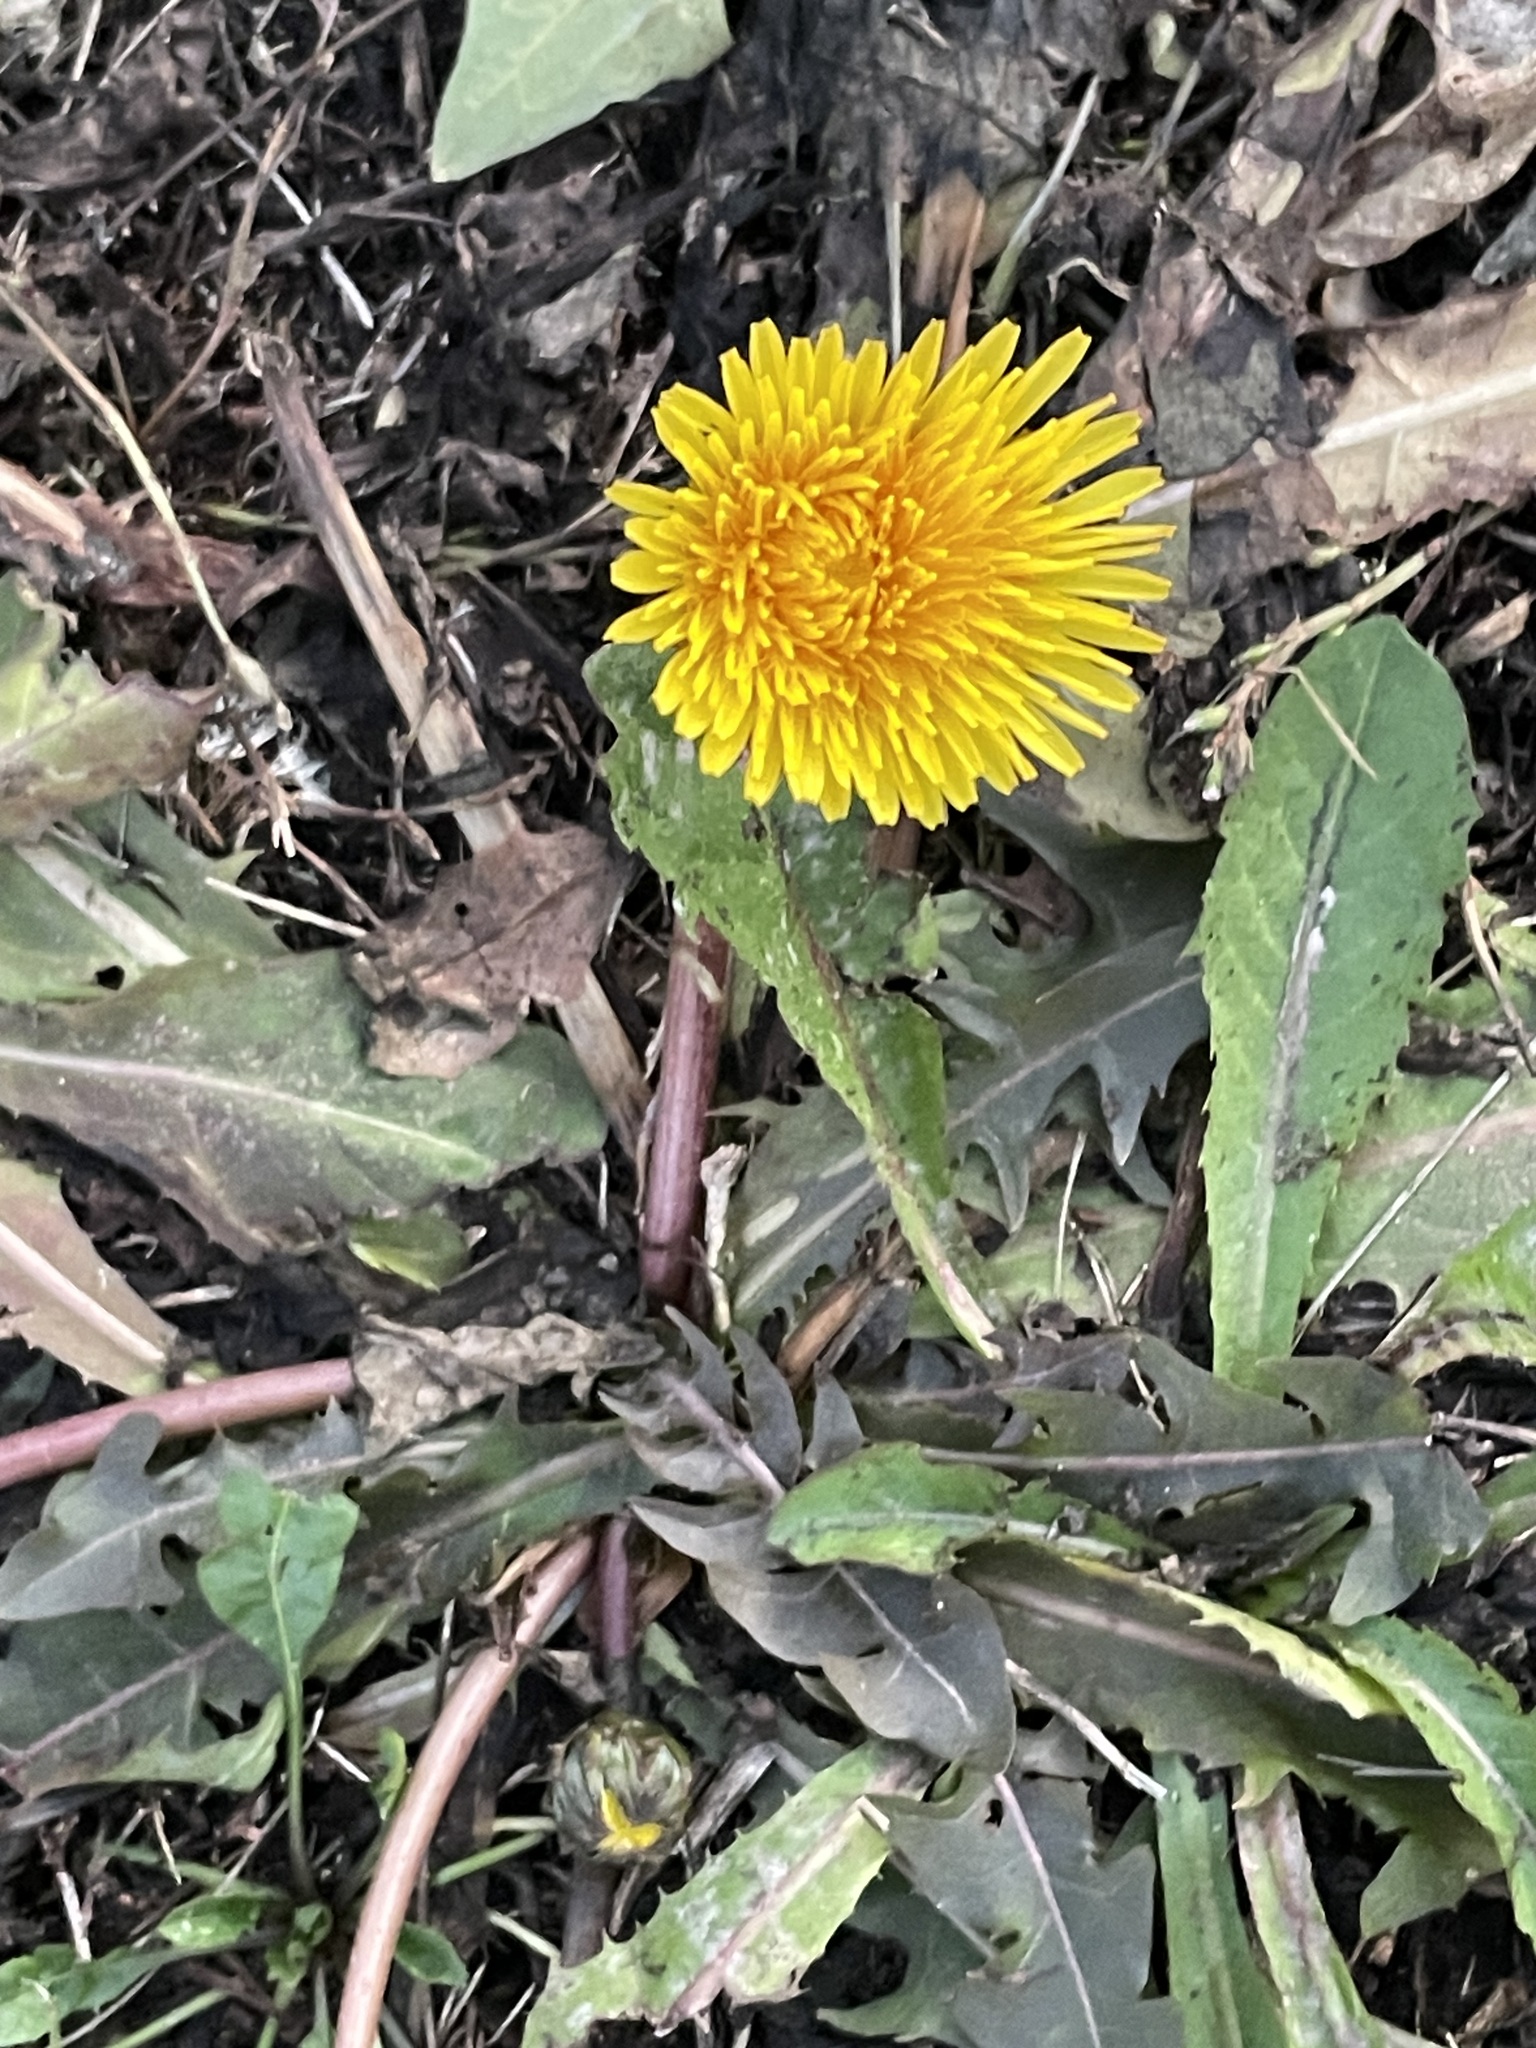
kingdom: Plantae
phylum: Tracheophyta
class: Magnoliopsida
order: Asterales
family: Asteraceae
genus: Taraxacum
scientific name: Taraxacum officinale
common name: Common dandelion
